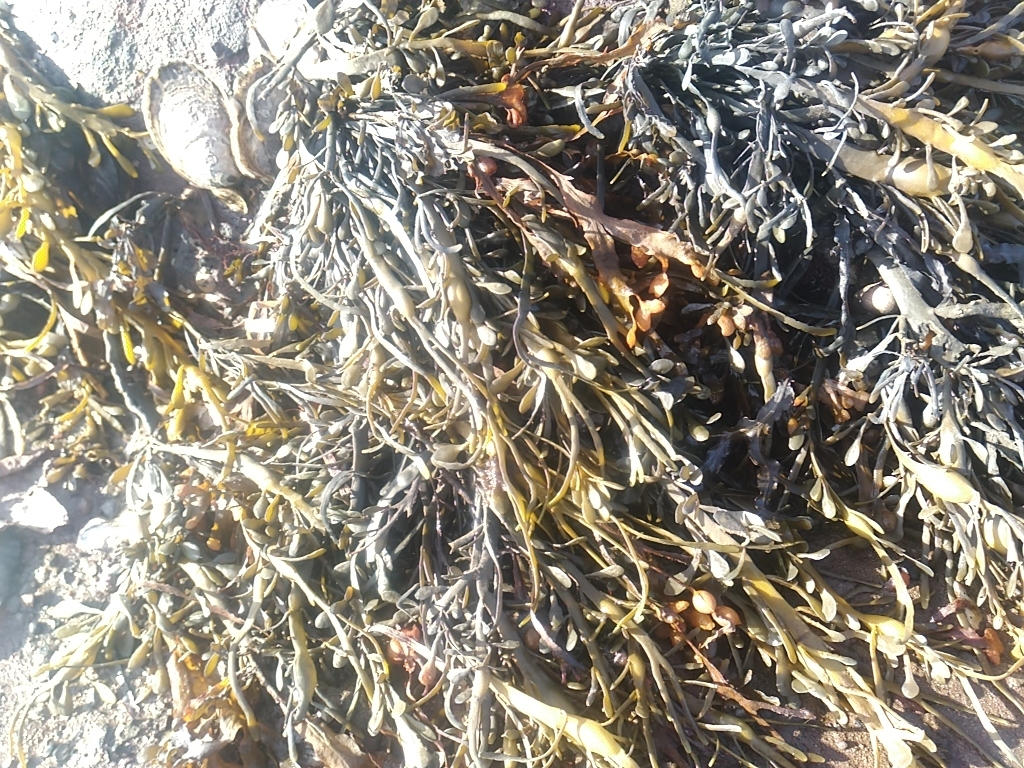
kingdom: Chromista
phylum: Ochrophyta
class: Phaeophyceae
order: Fucales
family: Fucaceae
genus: Ascophyllum
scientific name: Ascophyllum nodosum
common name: Knotted wrack
